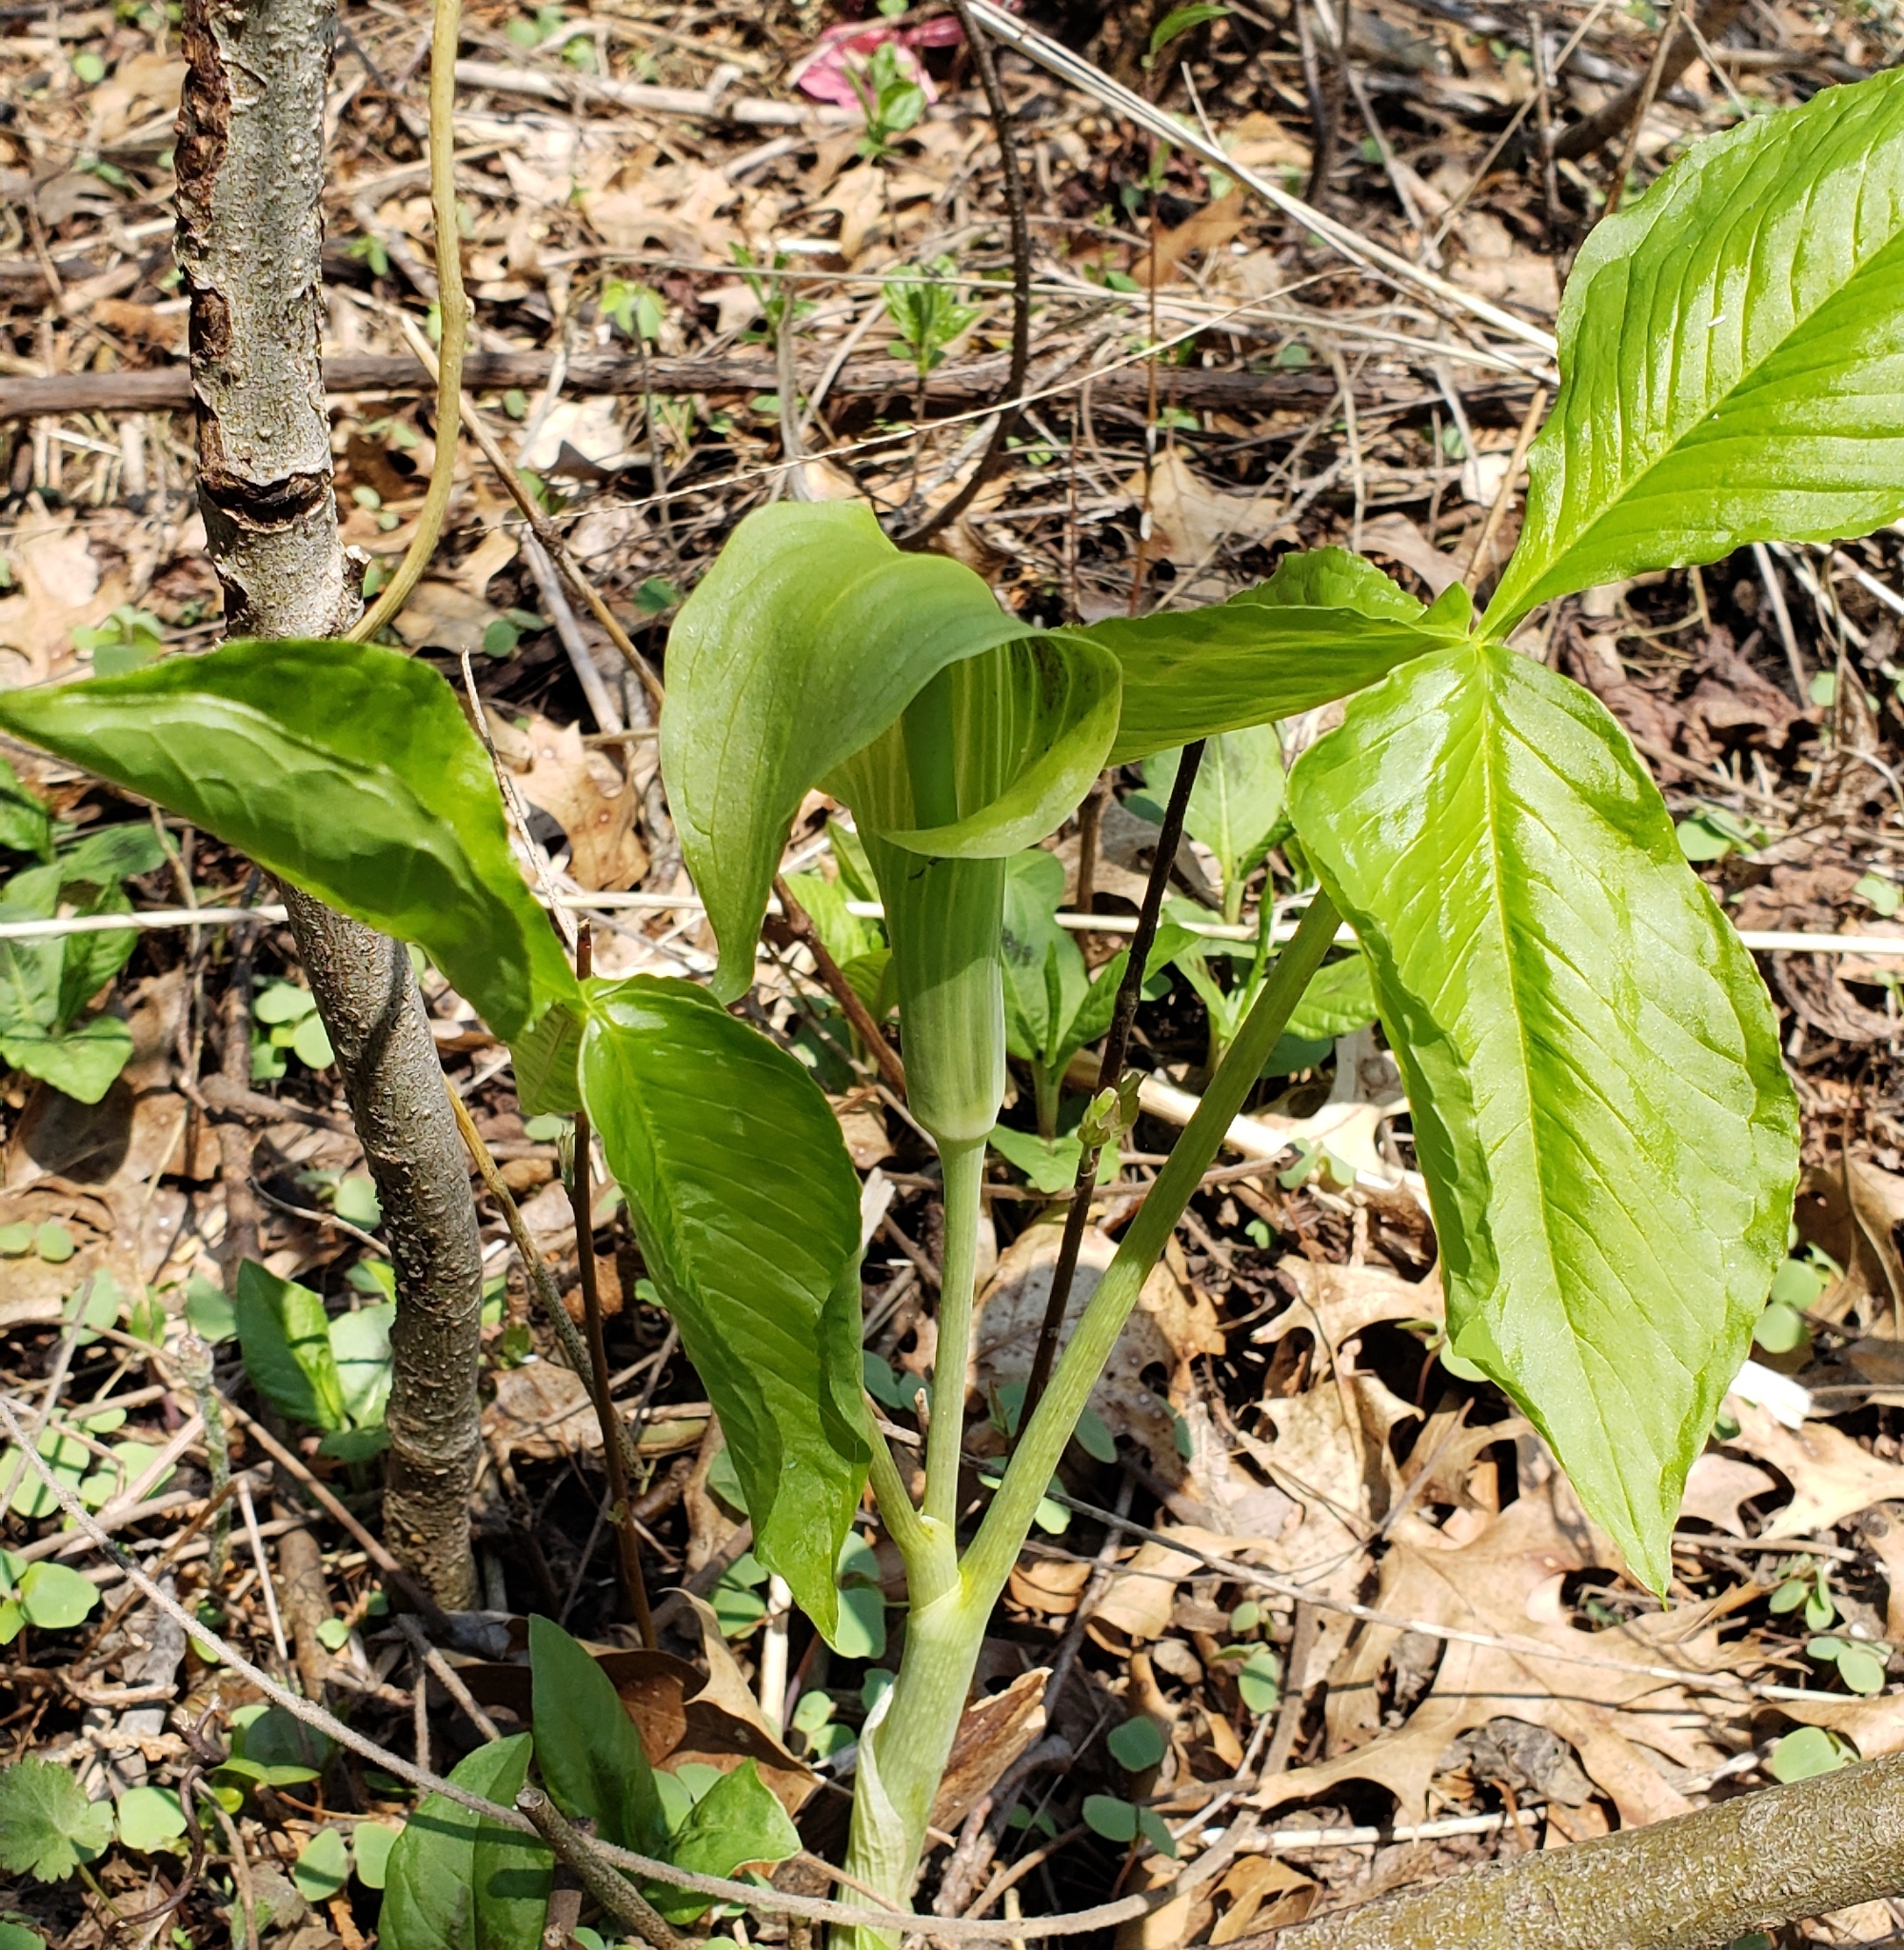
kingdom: Plantae
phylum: Tracheophyta
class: Liliopsida
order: Alismatales
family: Araceae
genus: Arisaema
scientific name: Arisaema triphyllum
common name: Jack-in-the-pulpit
